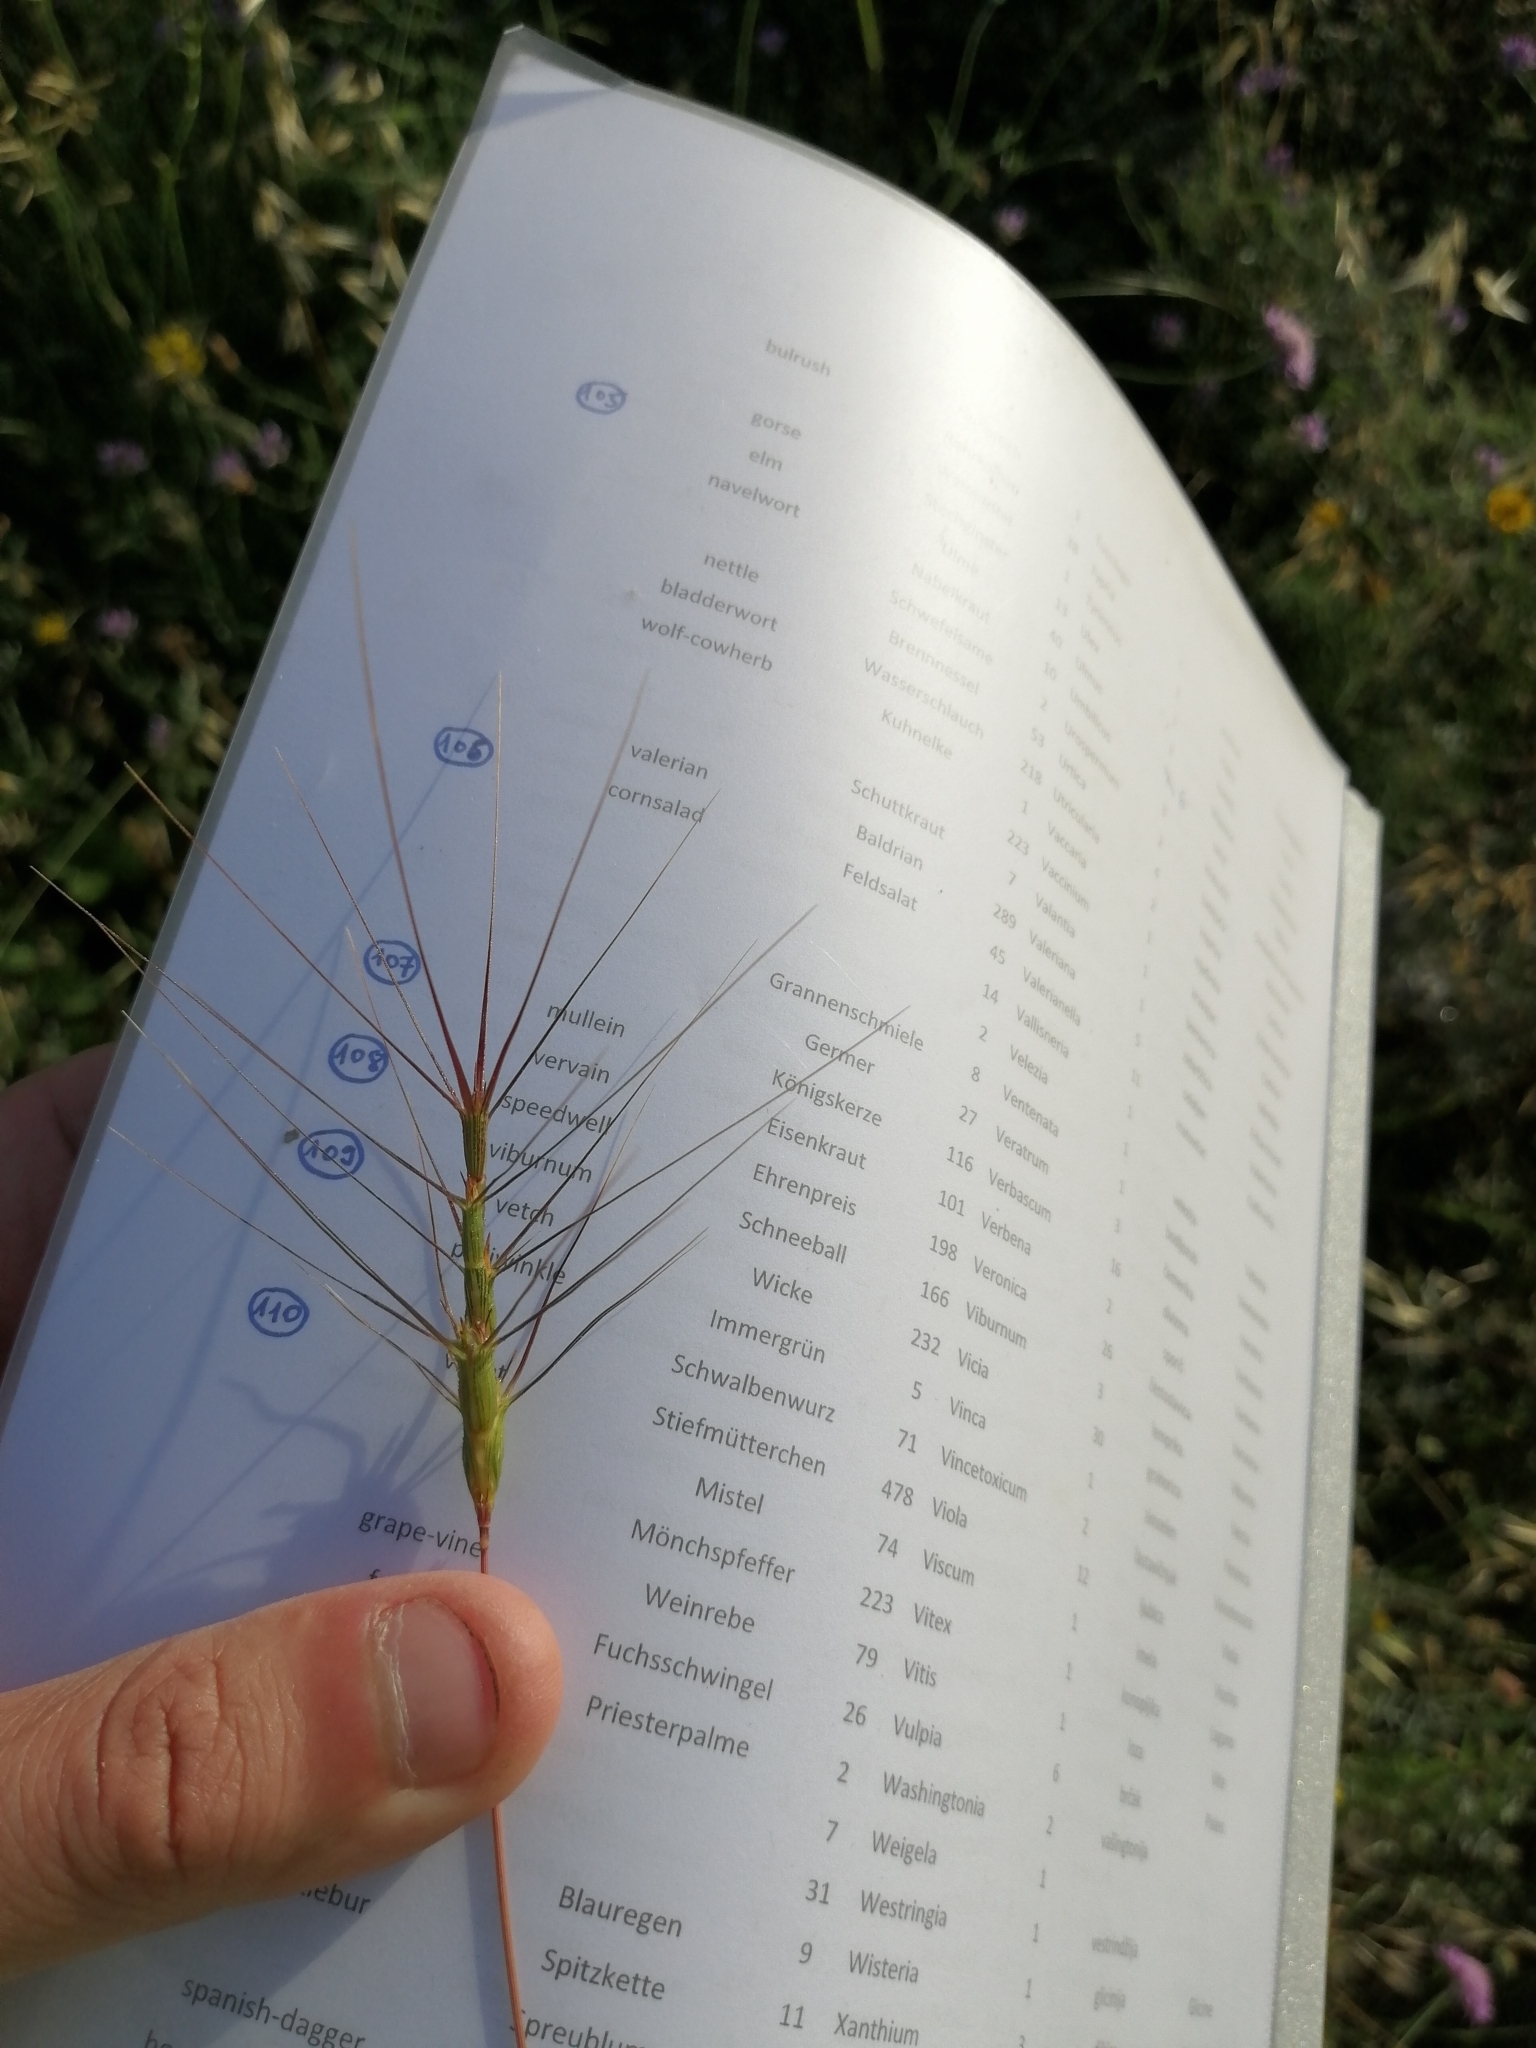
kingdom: Plantae
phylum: Tracheophyta
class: Liliopsida
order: Poales
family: Poaceae
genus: Aegilops
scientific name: Aegilops triuncialis
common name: Barb goat grass
